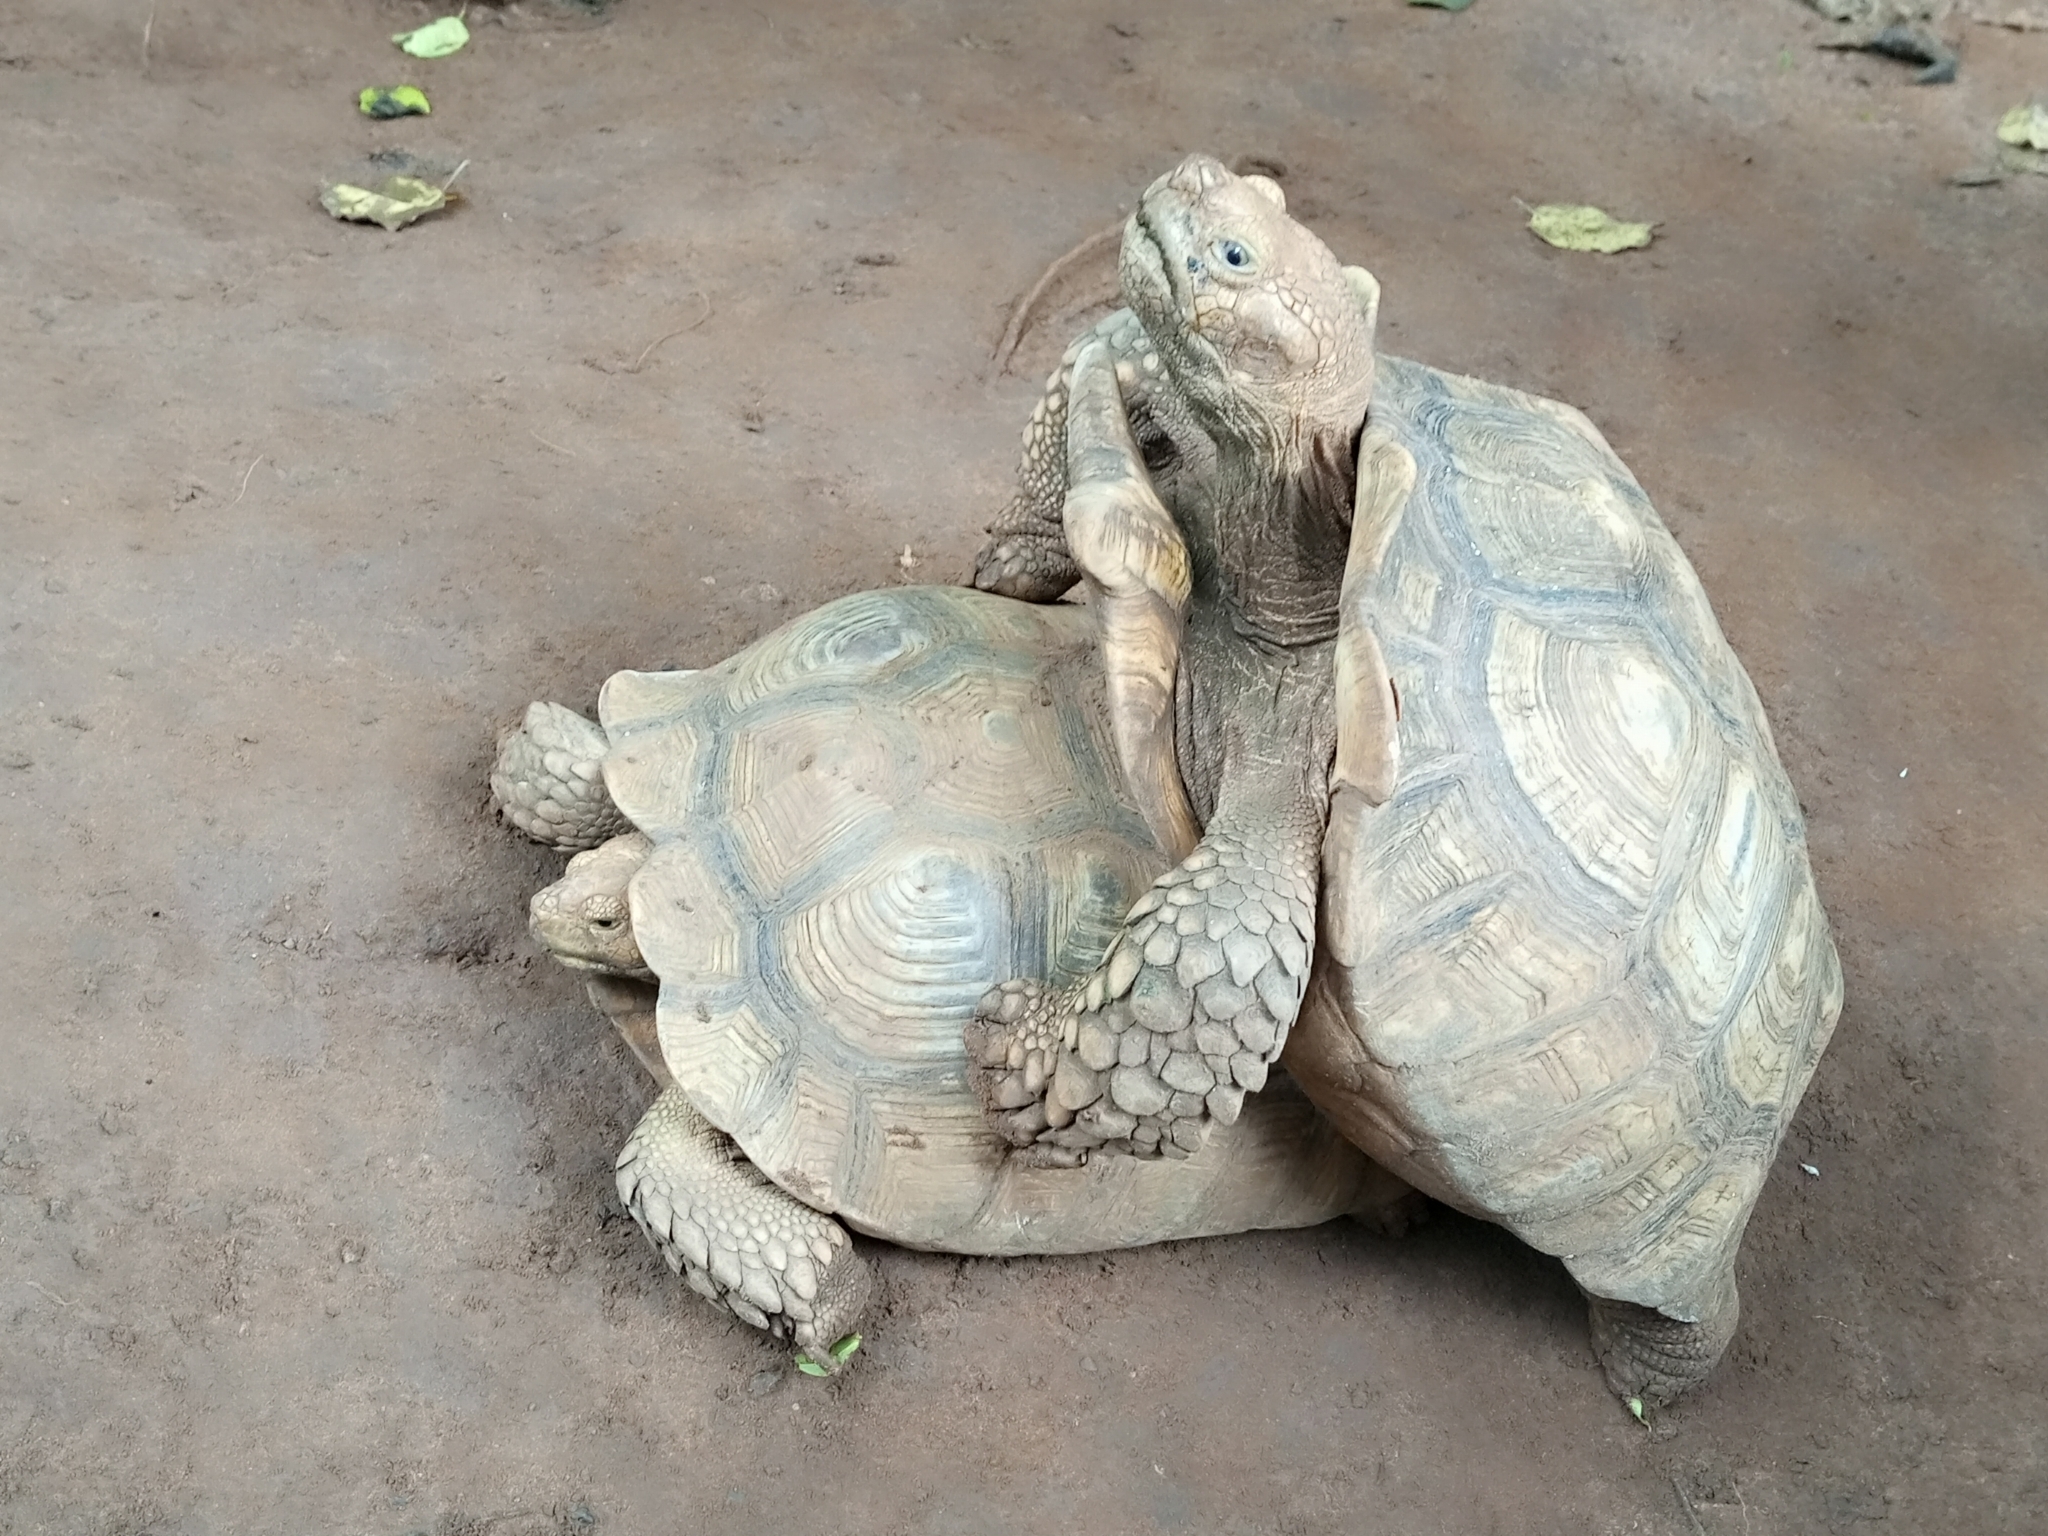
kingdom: Animalia
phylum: Chordata
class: Testudines
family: Testudinidae
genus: Centrochelys
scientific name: Centrochelys sulcata
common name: African spurred tortoise
